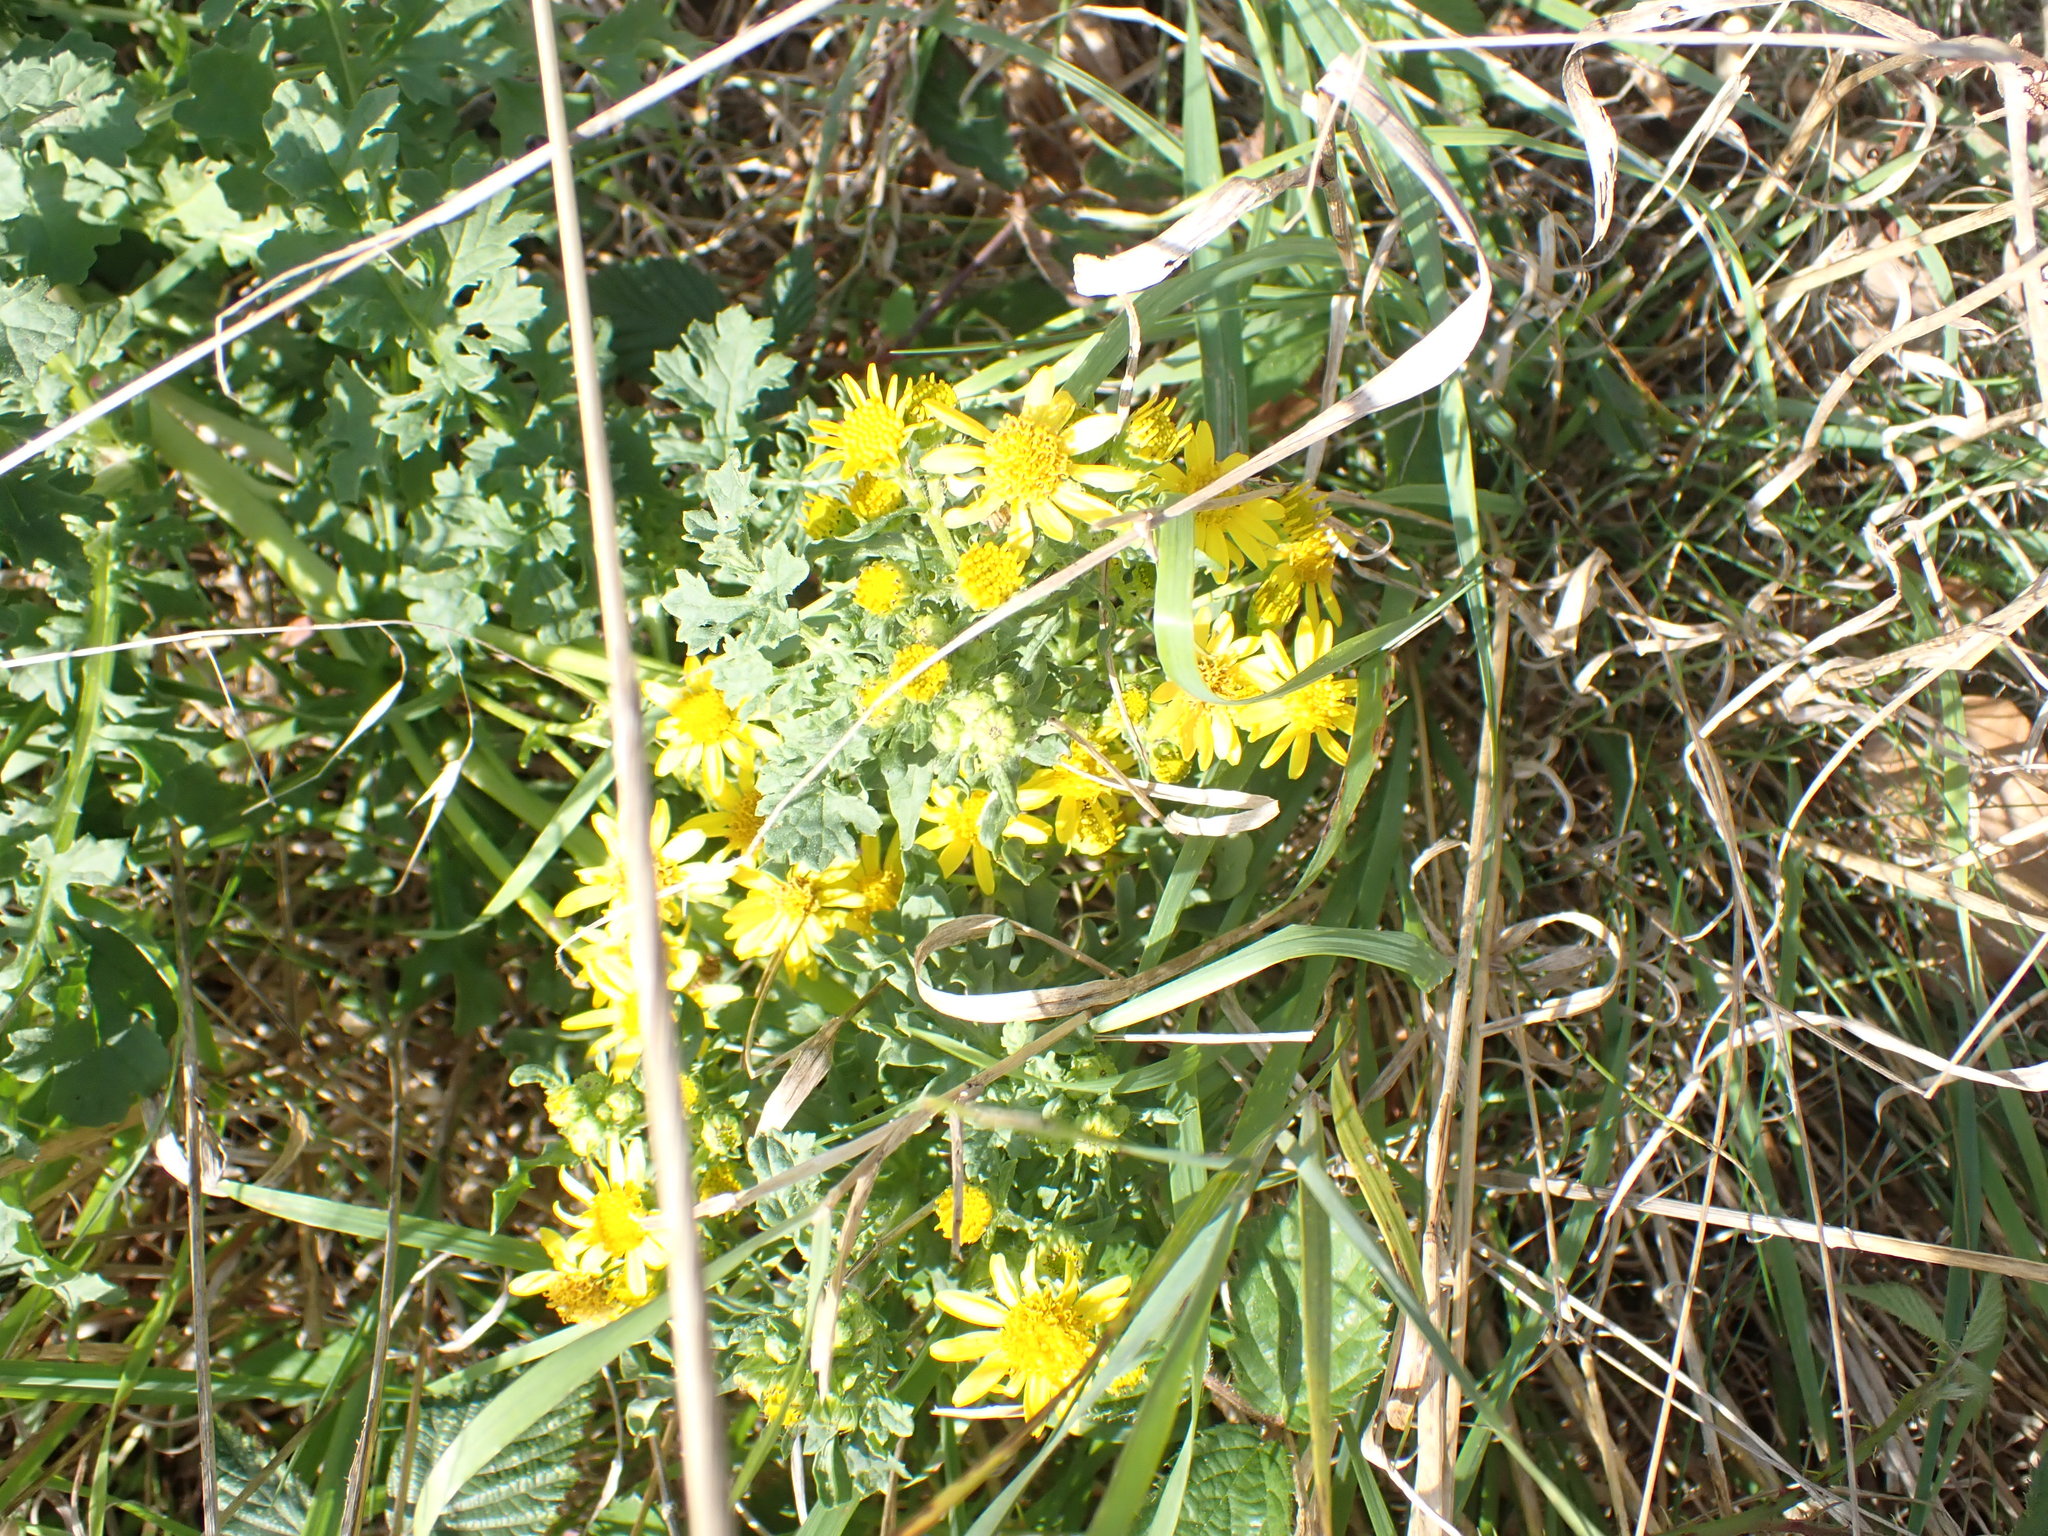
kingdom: Plantae
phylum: Tracheophyta
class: Magnoliopsida
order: Asterales
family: Asteraceae
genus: Jacobaea
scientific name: Jacobaea vulgaris
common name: Stinking willie
